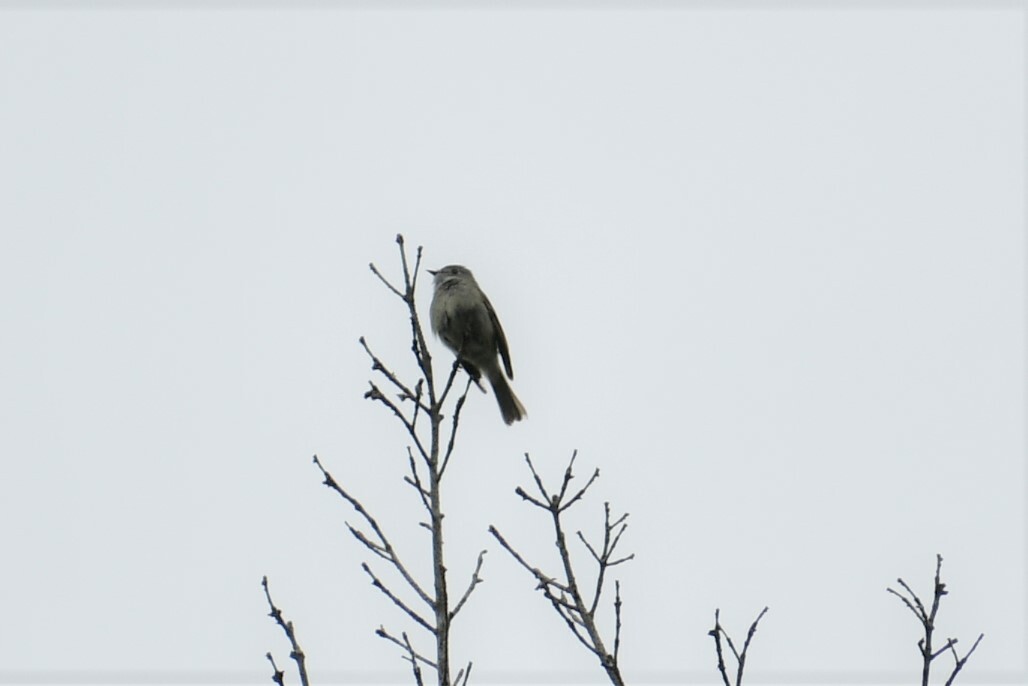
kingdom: Animalia
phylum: Chordata
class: Aves
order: Passeriformes
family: Tyrannidae
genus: Empidonax
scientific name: Empidonax hammondii
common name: Hammond's flycatcher
